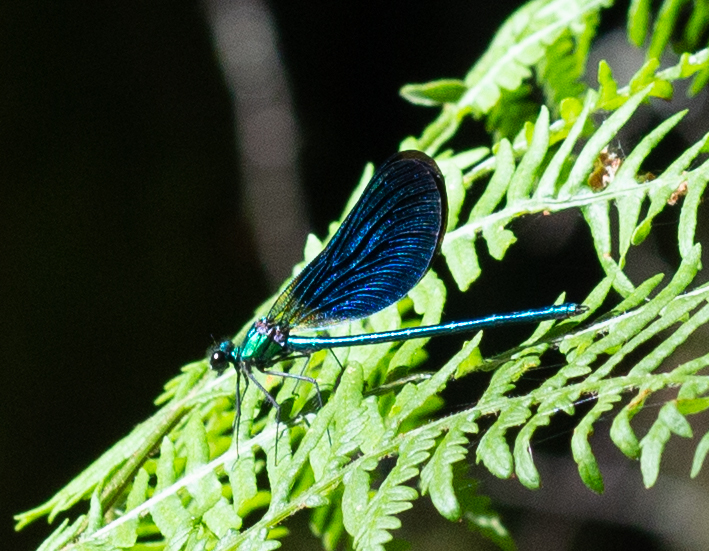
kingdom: Animalia
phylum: Arthropoda
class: Insecta
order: Odonata
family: Calopterygidae
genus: Calopteryx
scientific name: Calopteryx virgo
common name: Beautiful demoiselle
